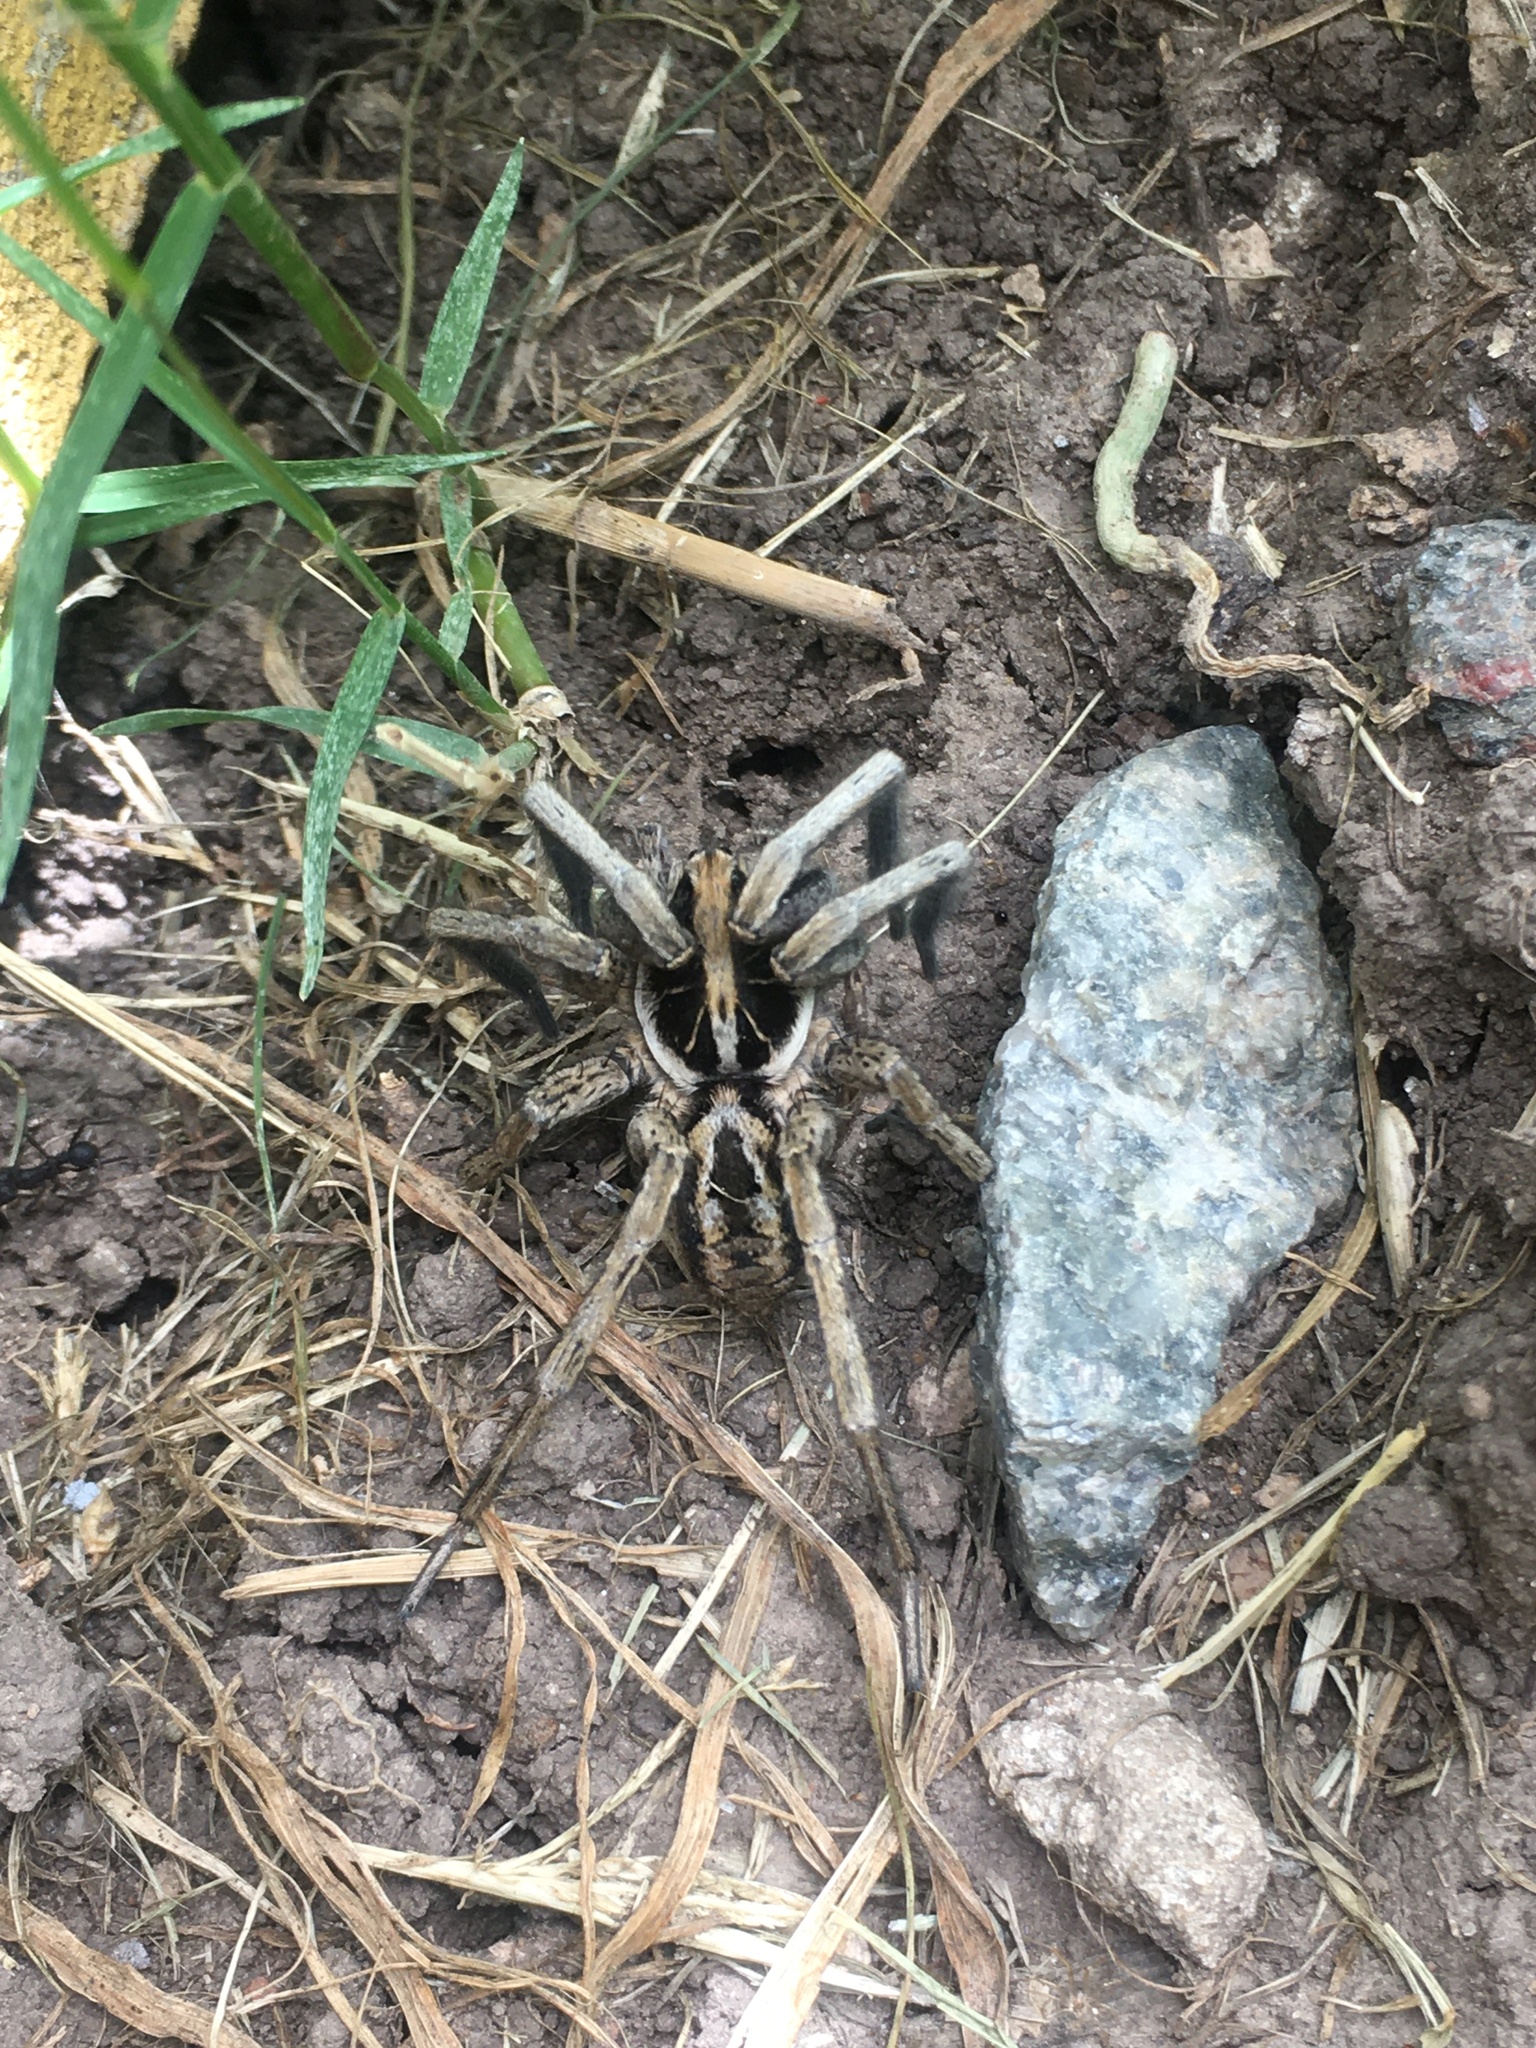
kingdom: Animalia
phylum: Arthropoda
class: Arachnida
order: Araneae
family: Lycosidae
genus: Schizocosa
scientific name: Schizocosa malitiosa
